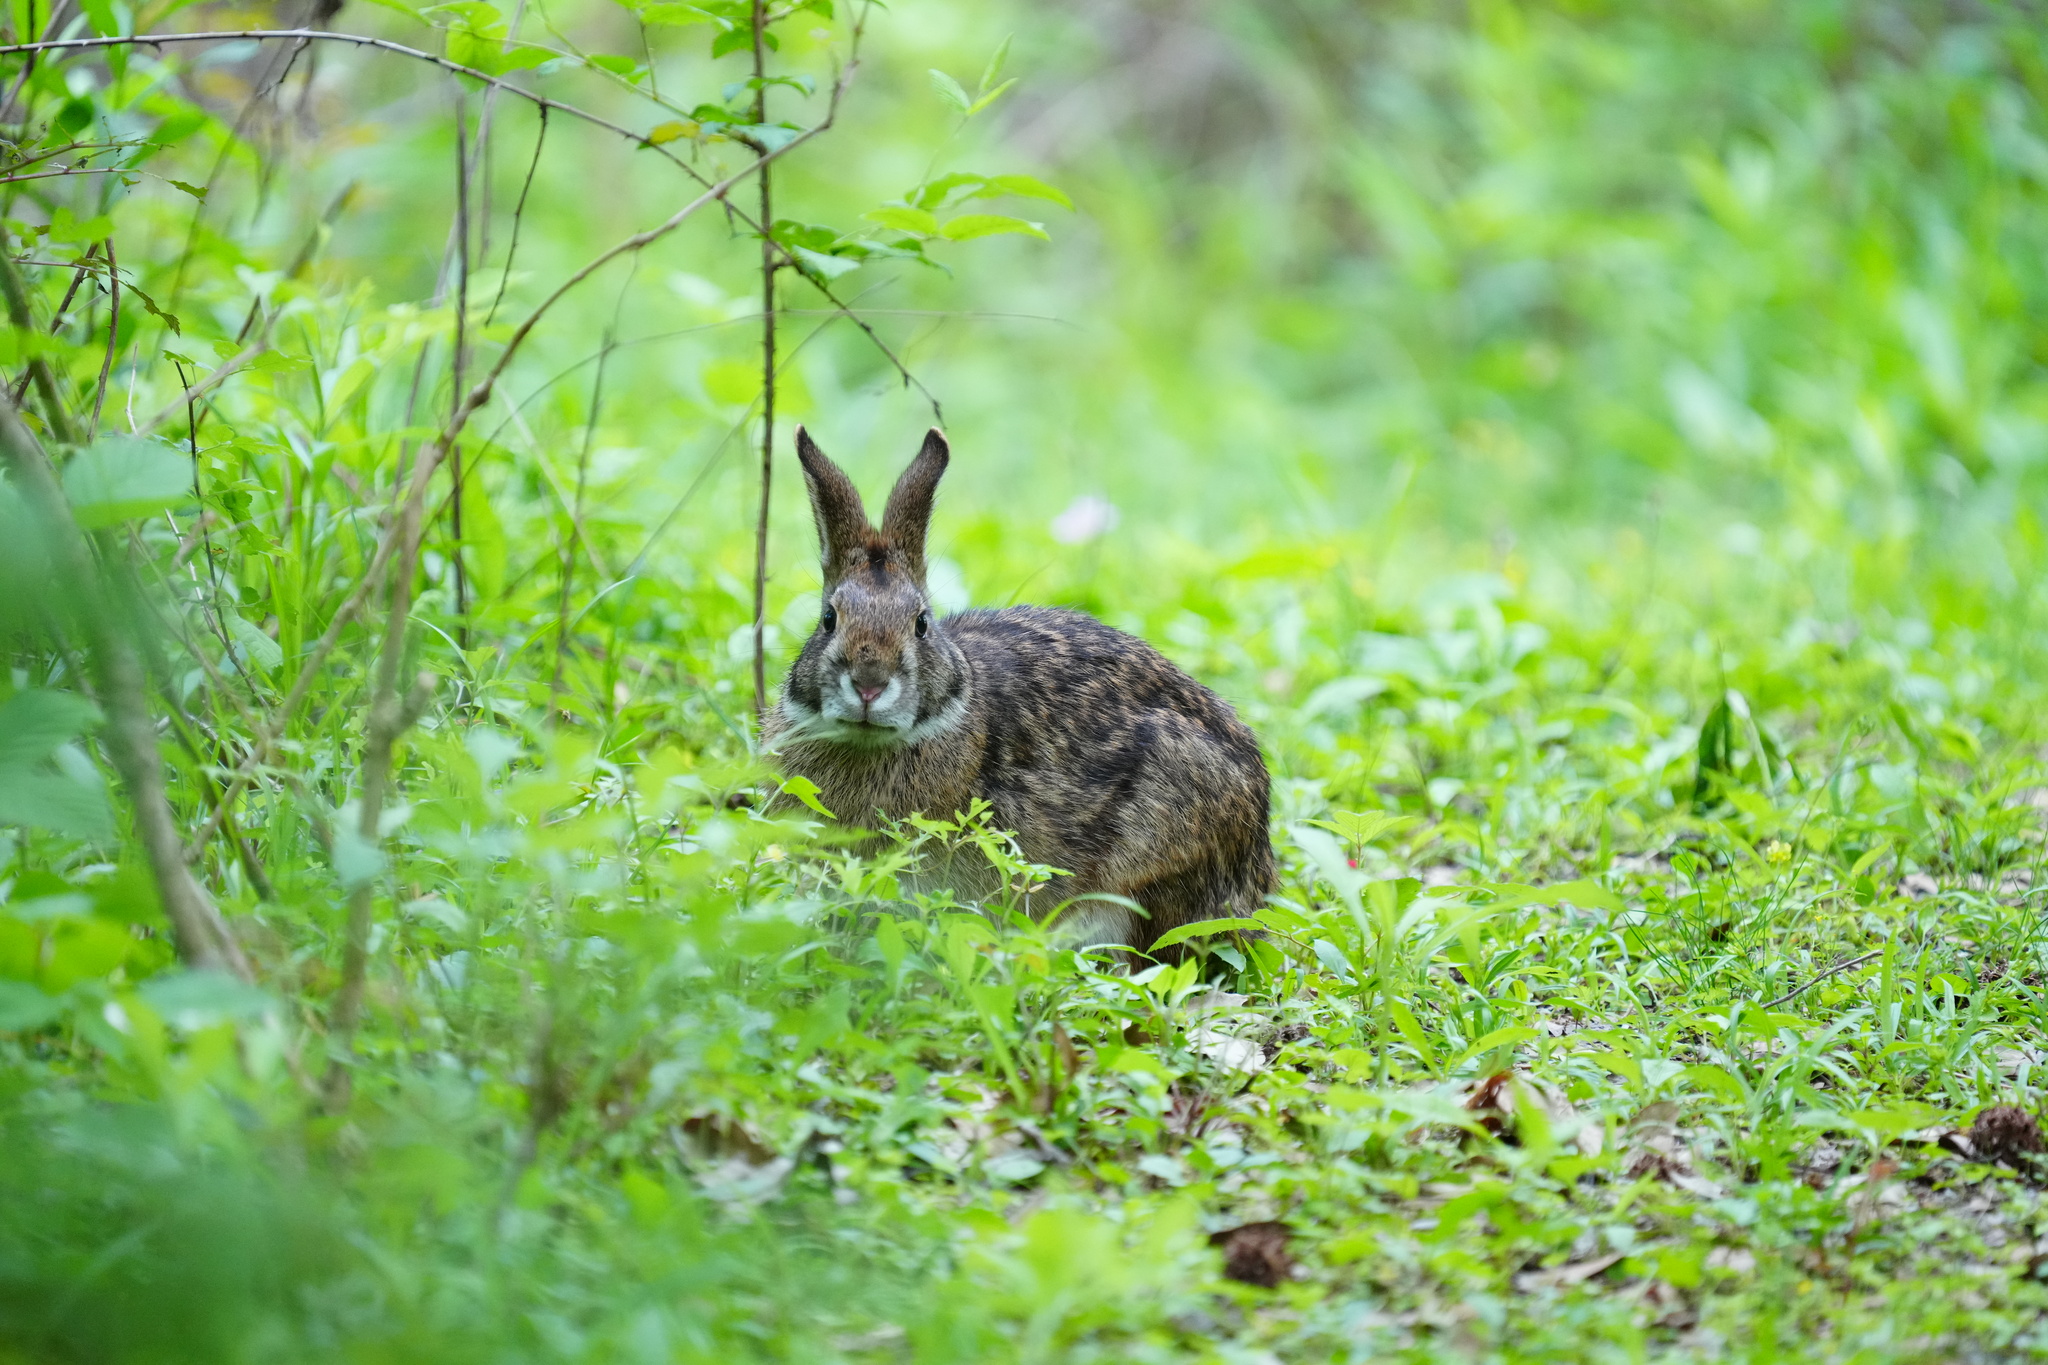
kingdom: Animalia
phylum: Chordata
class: Mammalia
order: Lagomorpha
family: Leporidae
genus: Sylvilagus
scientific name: Sylvilagus aquaticus
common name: Swamp rabbit
